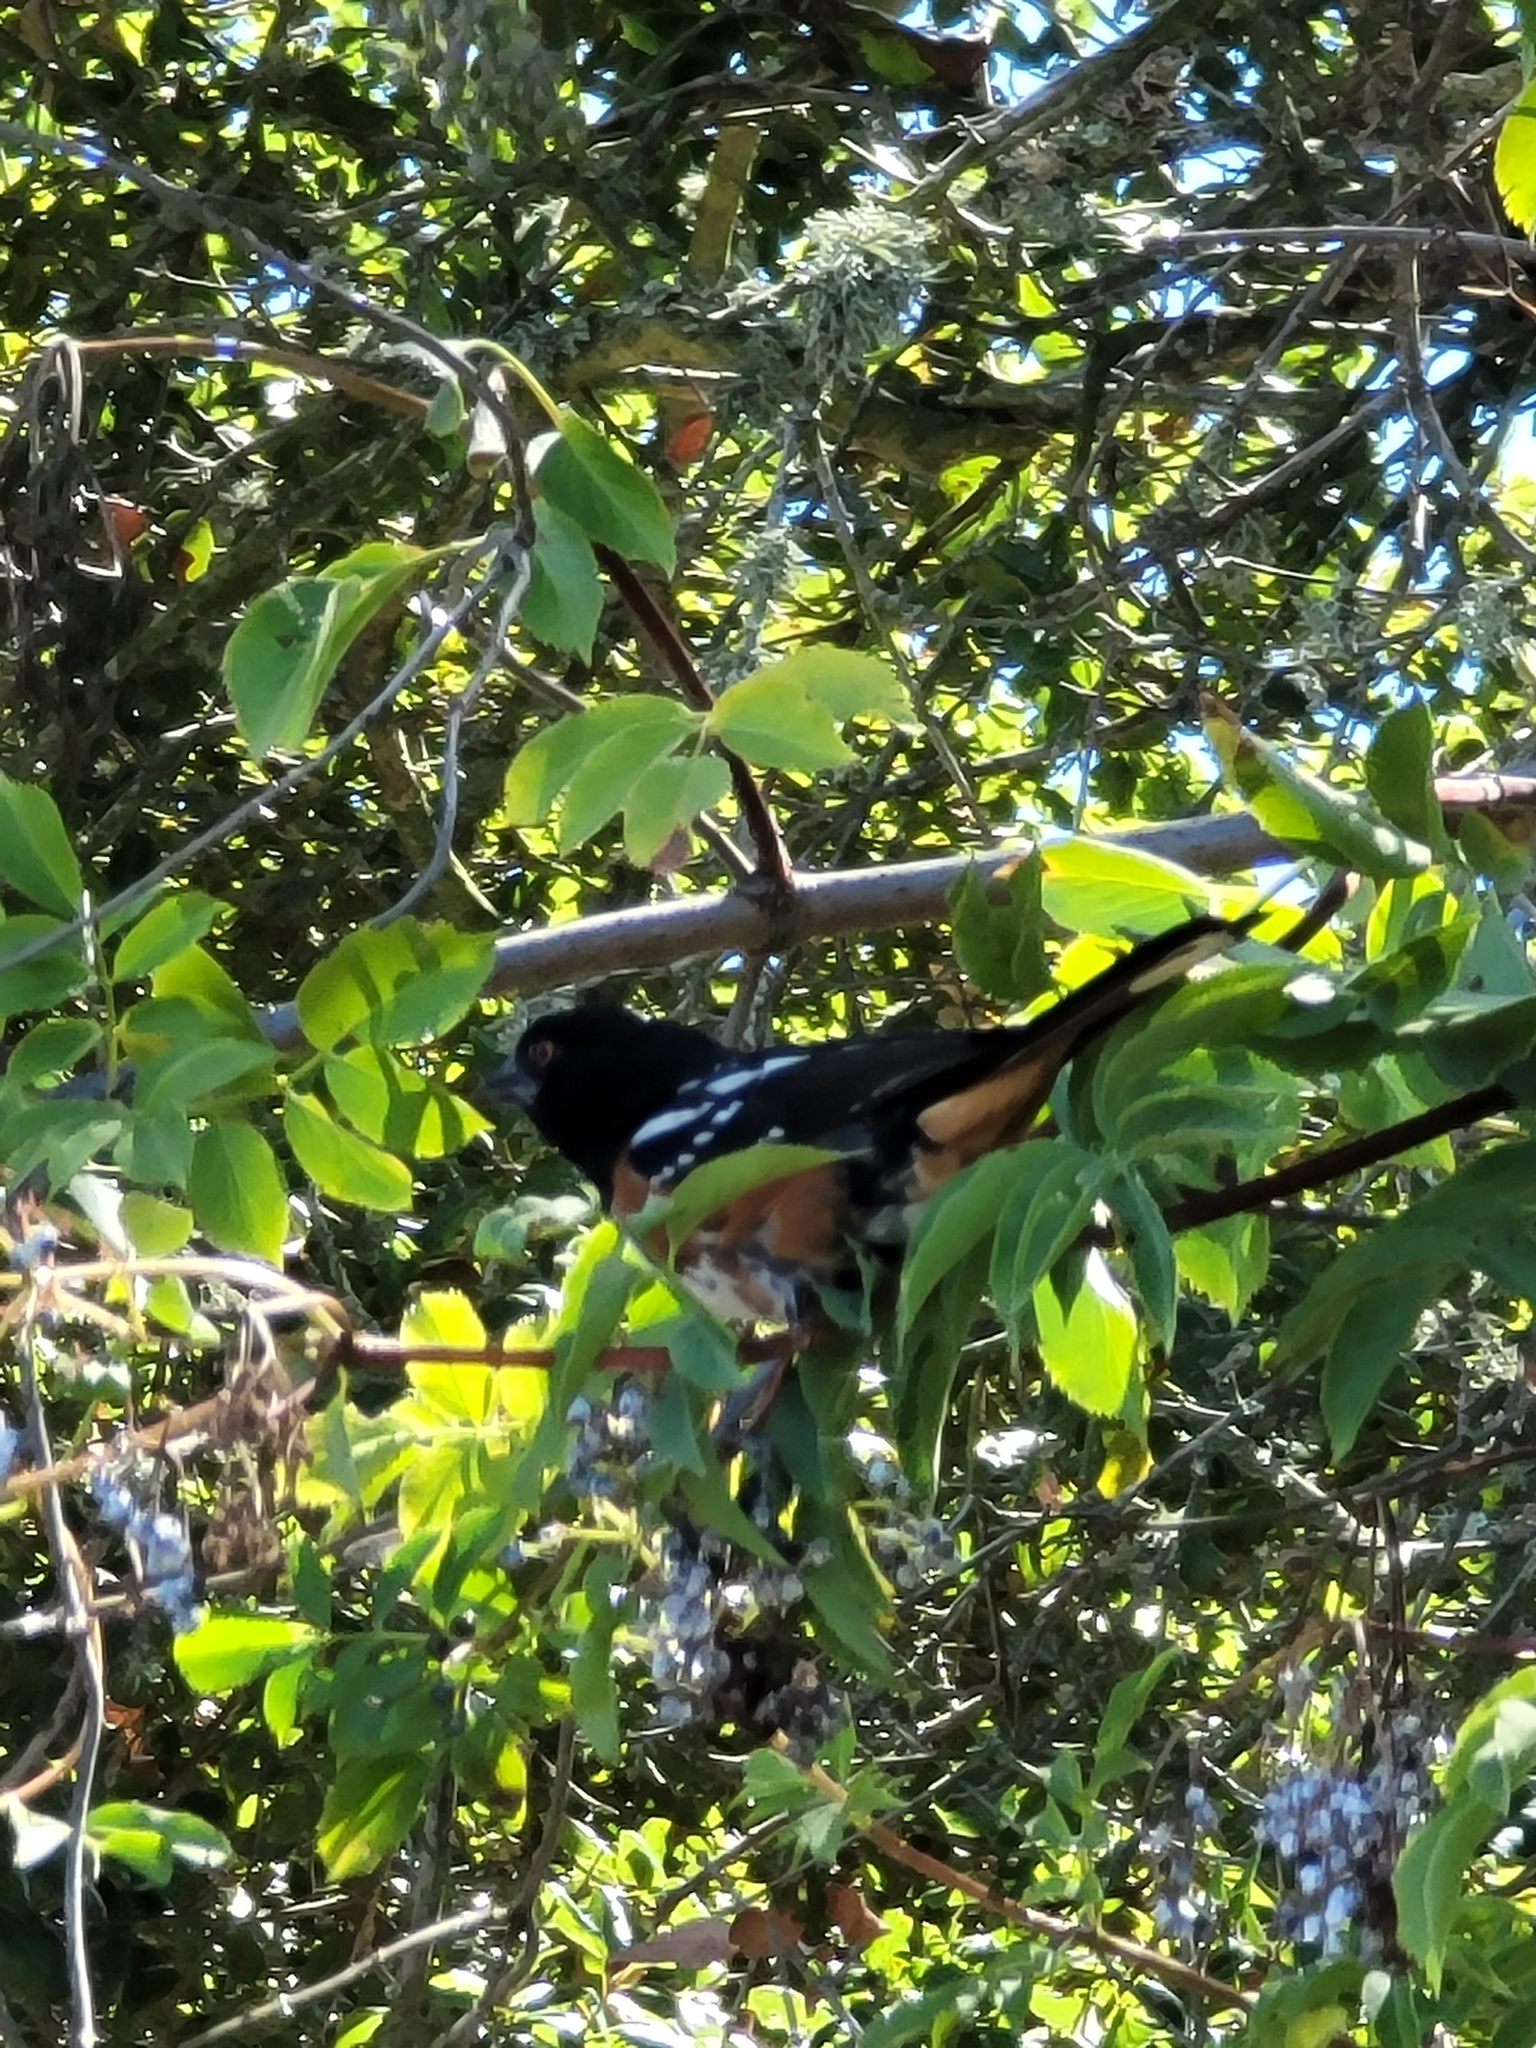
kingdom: Animalia
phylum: Chordata
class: Aves
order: Passeriformes
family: Passerellidae
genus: Pipilo
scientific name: Pipilo maculatus
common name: Spotted towhee
